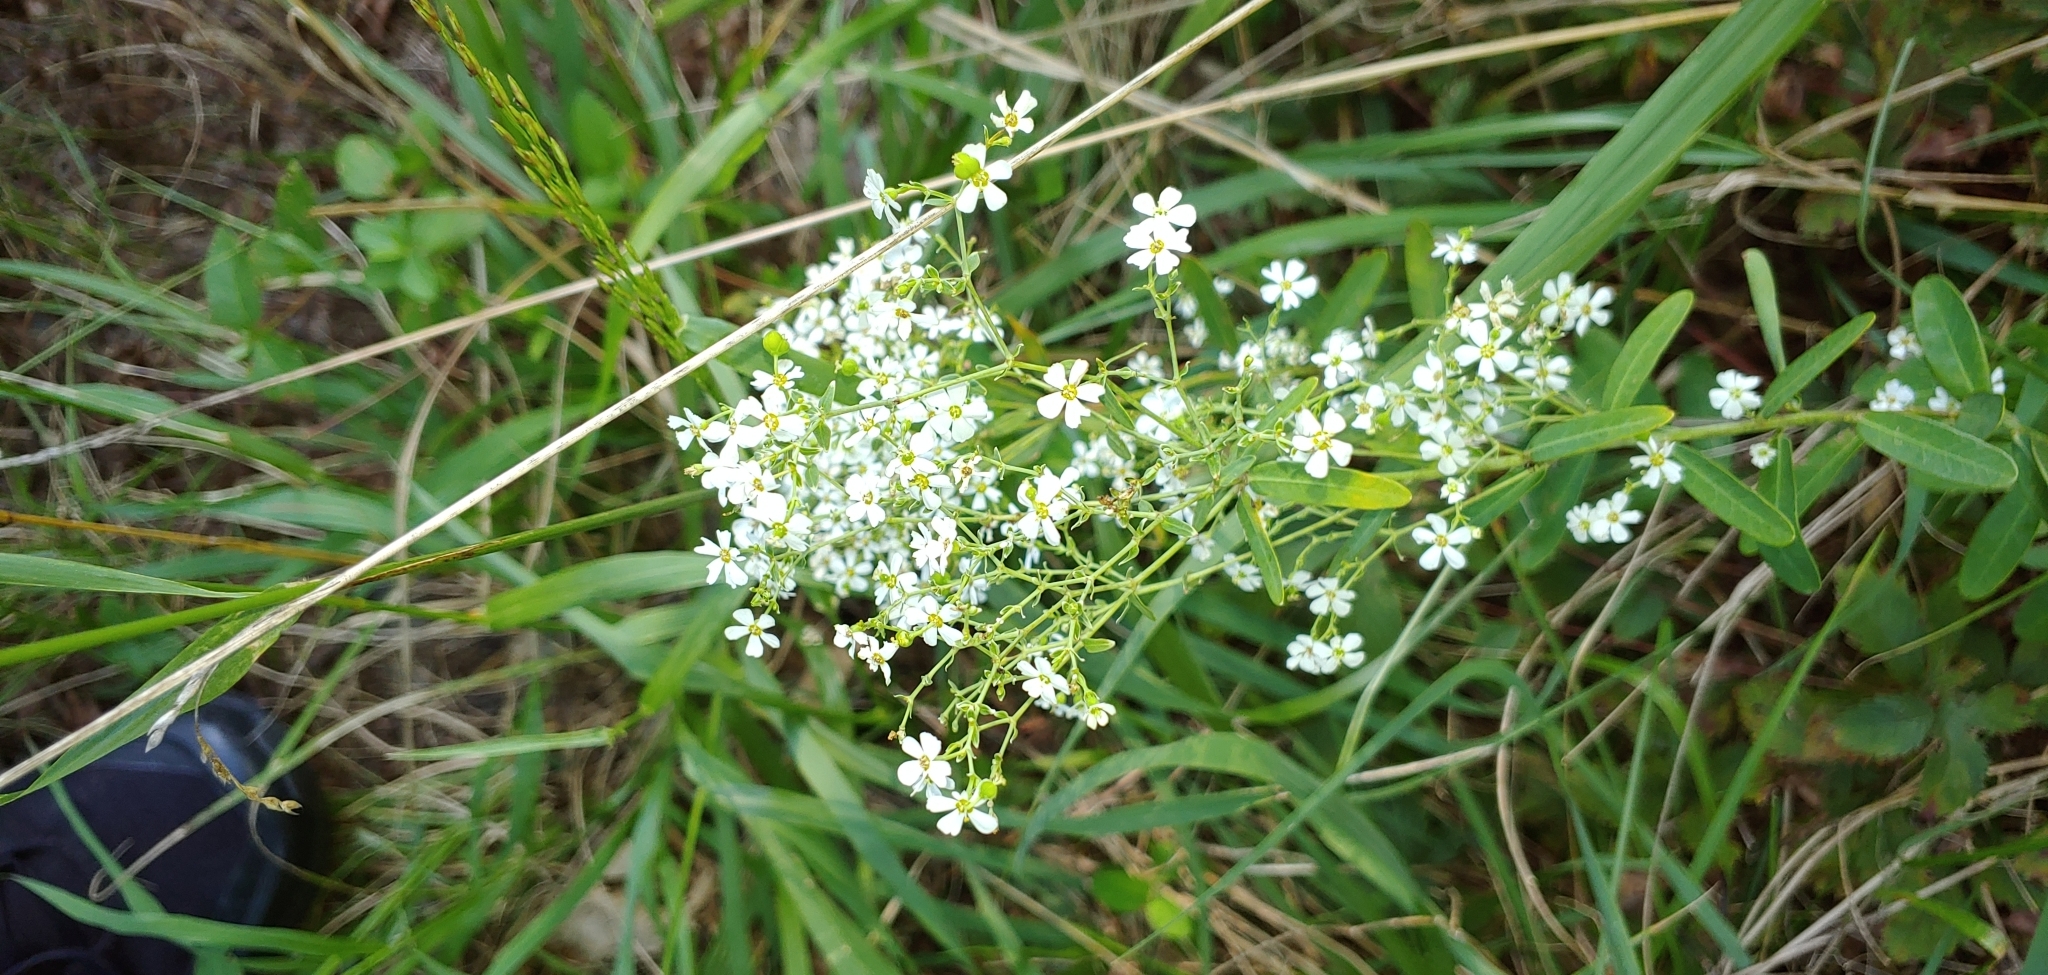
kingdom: Plantae
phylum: Tracheophyta
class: Magnoliopsida
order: Malpighiales
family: Euphorbiaceae
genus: Euphorbia
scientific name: Euphorbia corollata
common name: Flowering spurge
